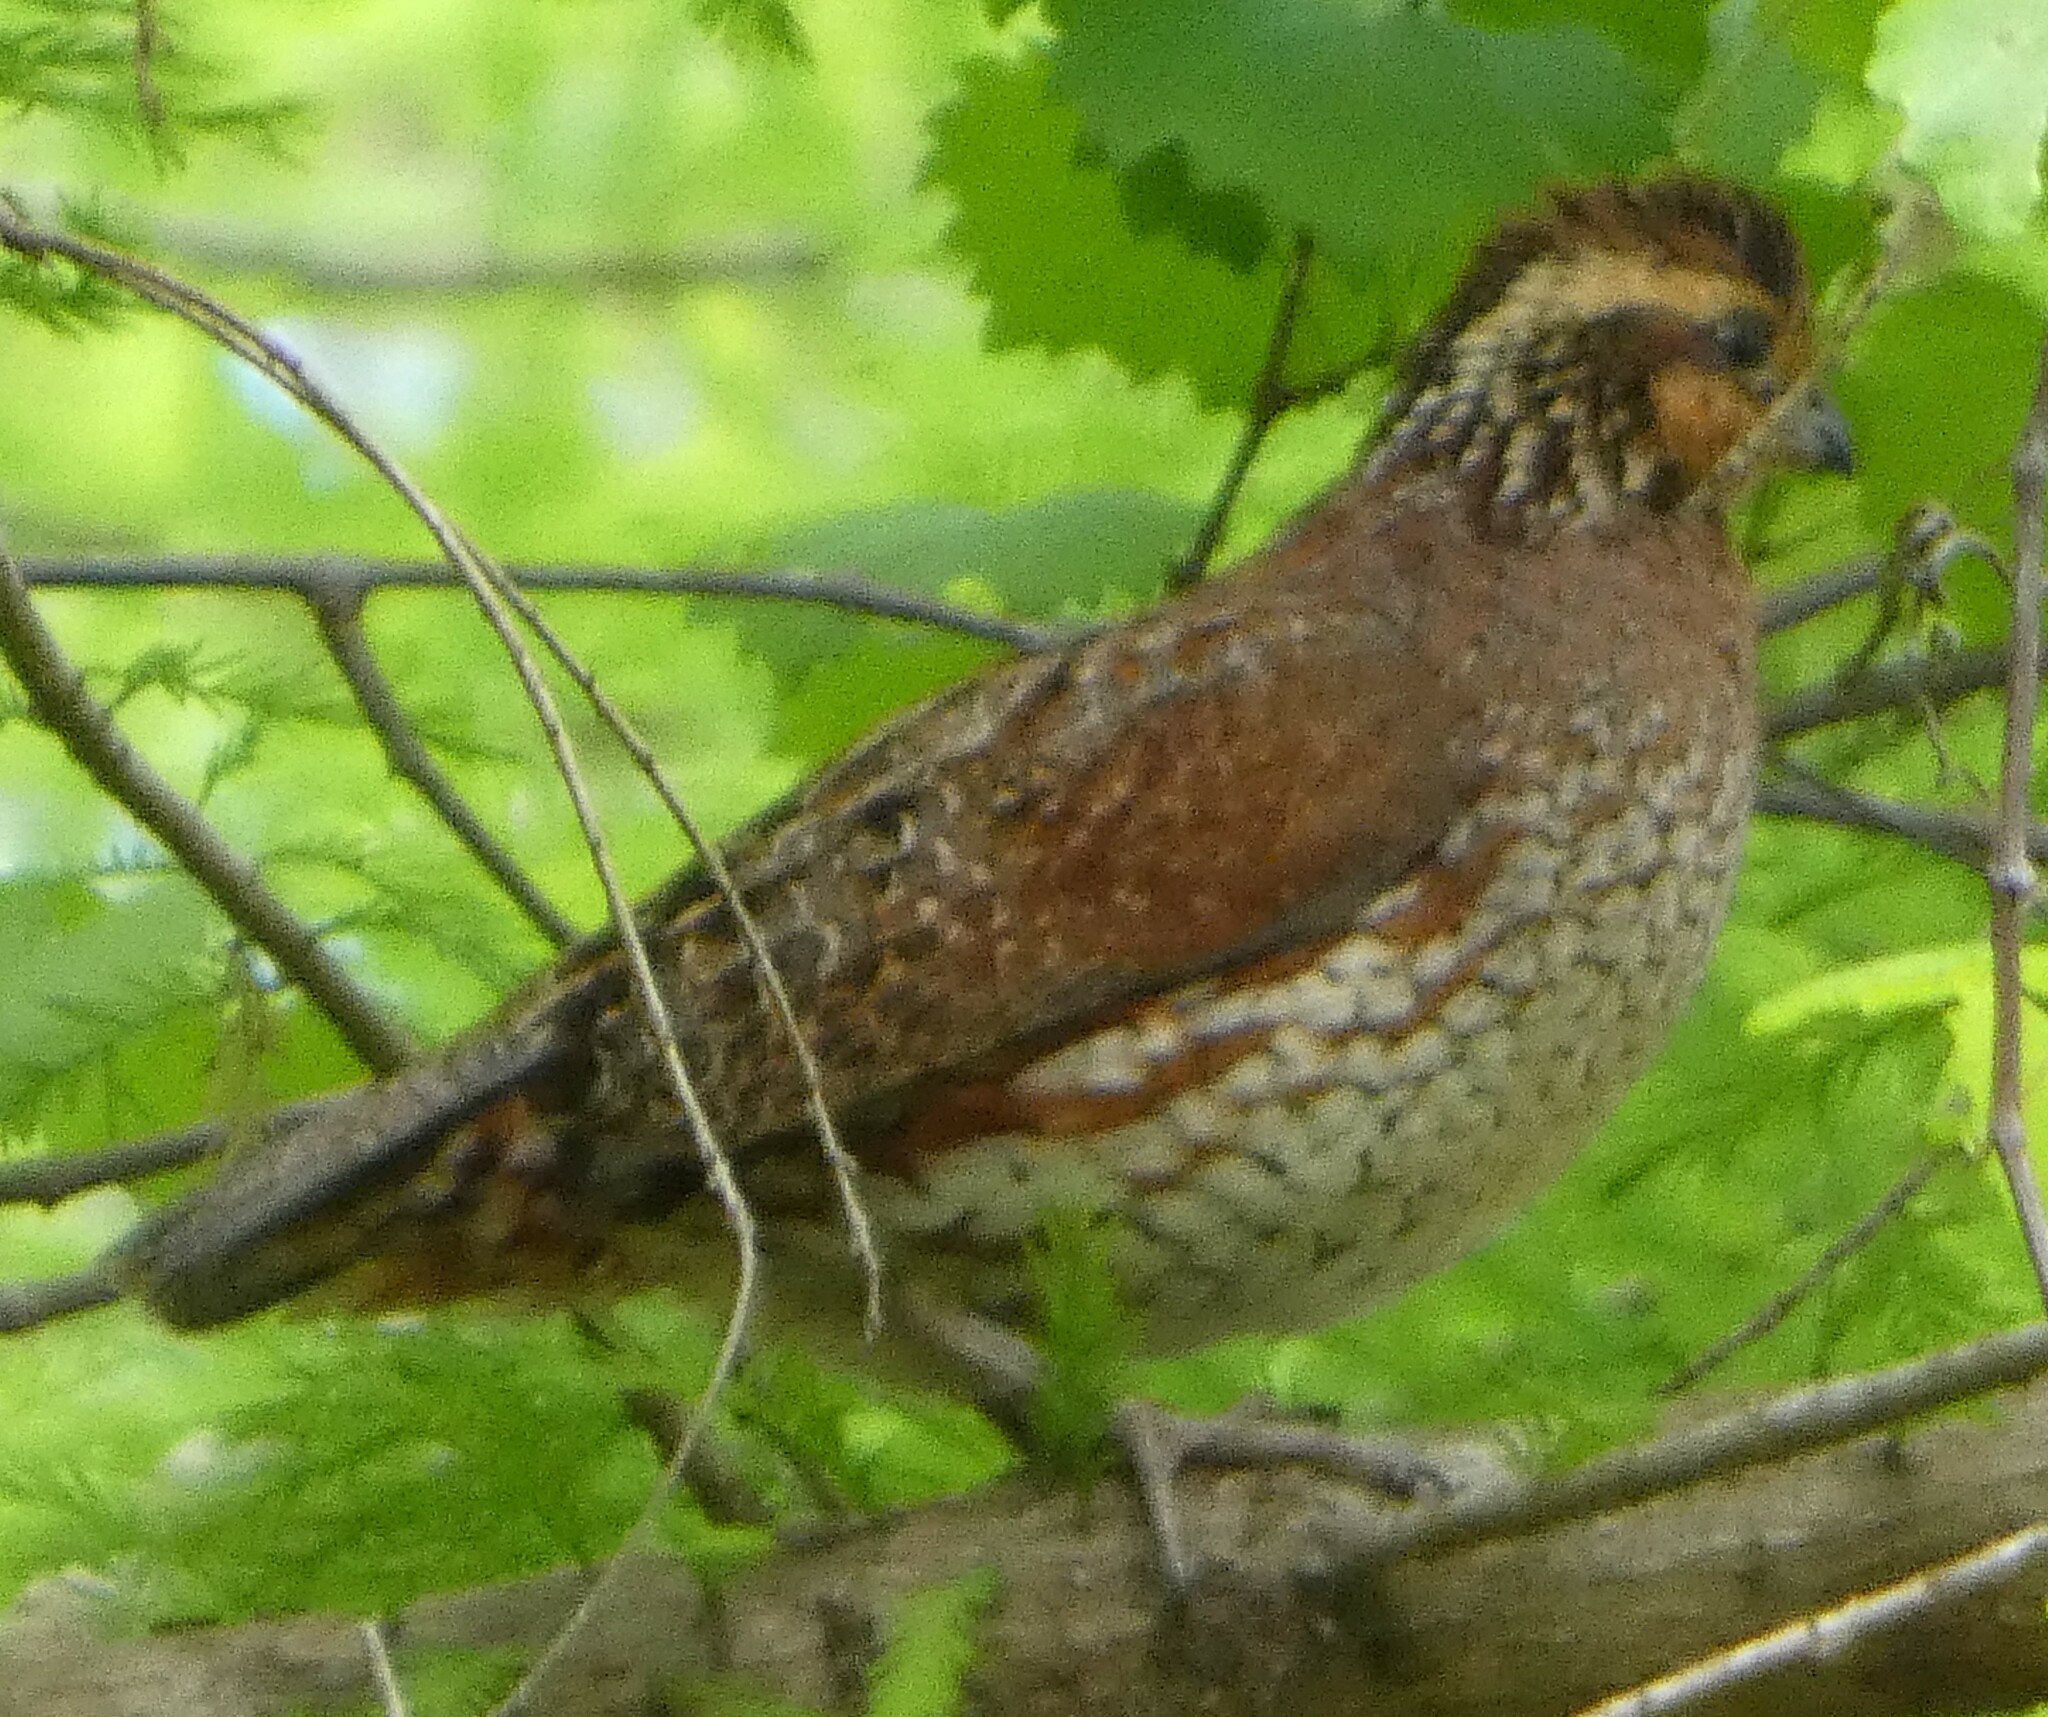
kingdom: Animalia
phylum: Chordata
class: Aves
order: Galliformes
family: Odontophoridae
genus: Colinus
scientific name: Colinus virginianus
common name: Northern bobwhite
